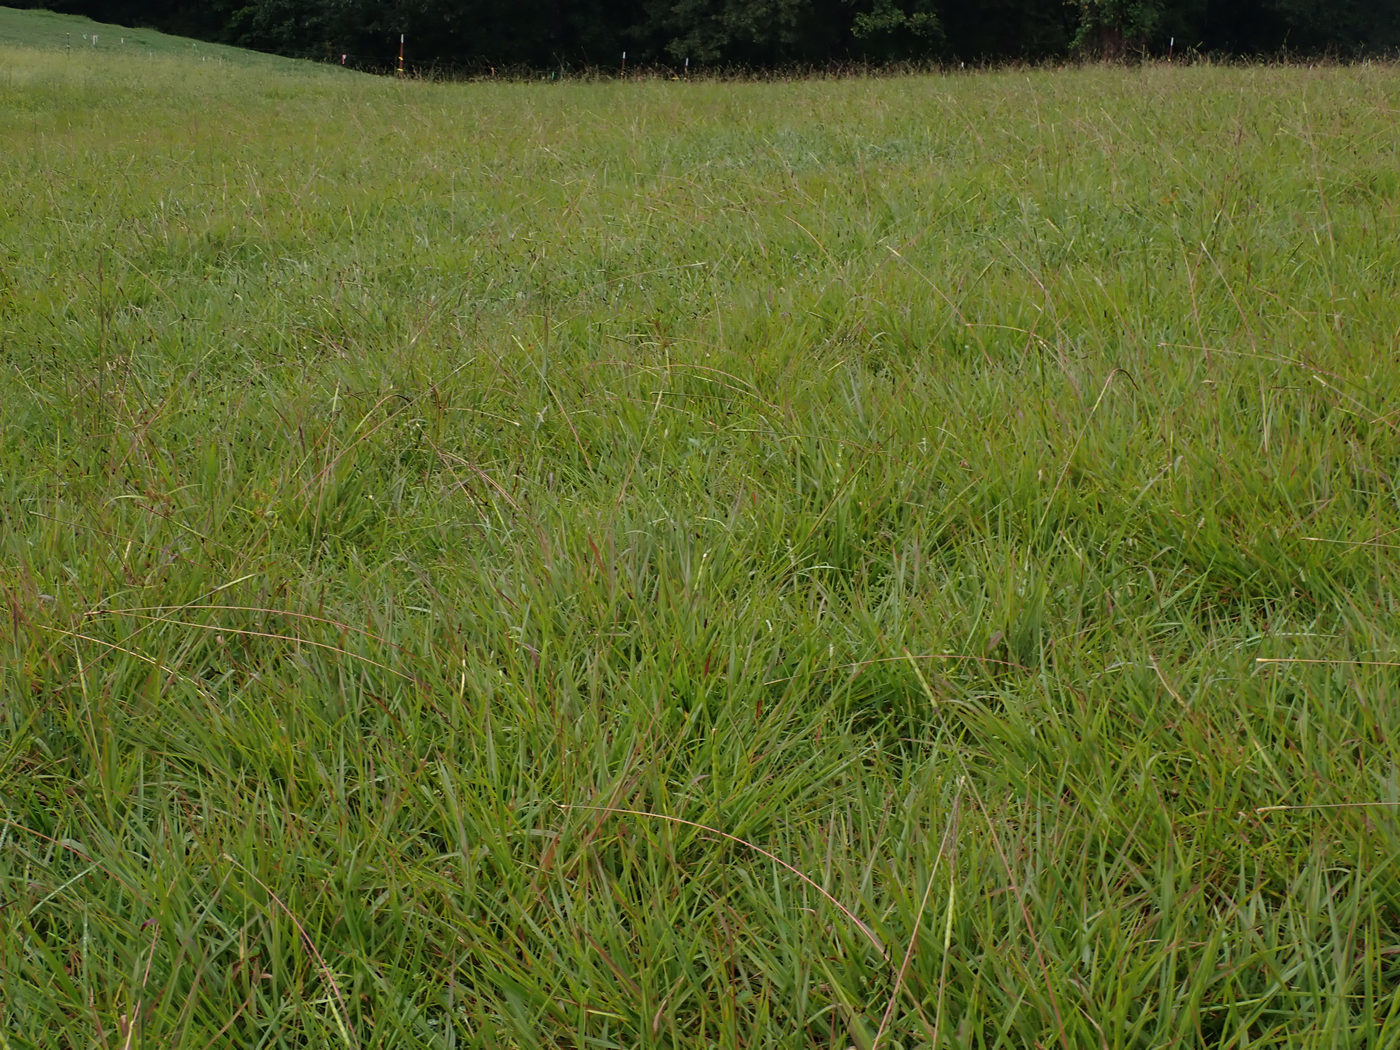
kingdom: Plantae
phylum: Tracheophyta
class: Liliopsida
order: Poales
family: Poaceae
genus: Tripsacum
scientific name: Tripsacum dactyloides
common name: Buffalo-grass
